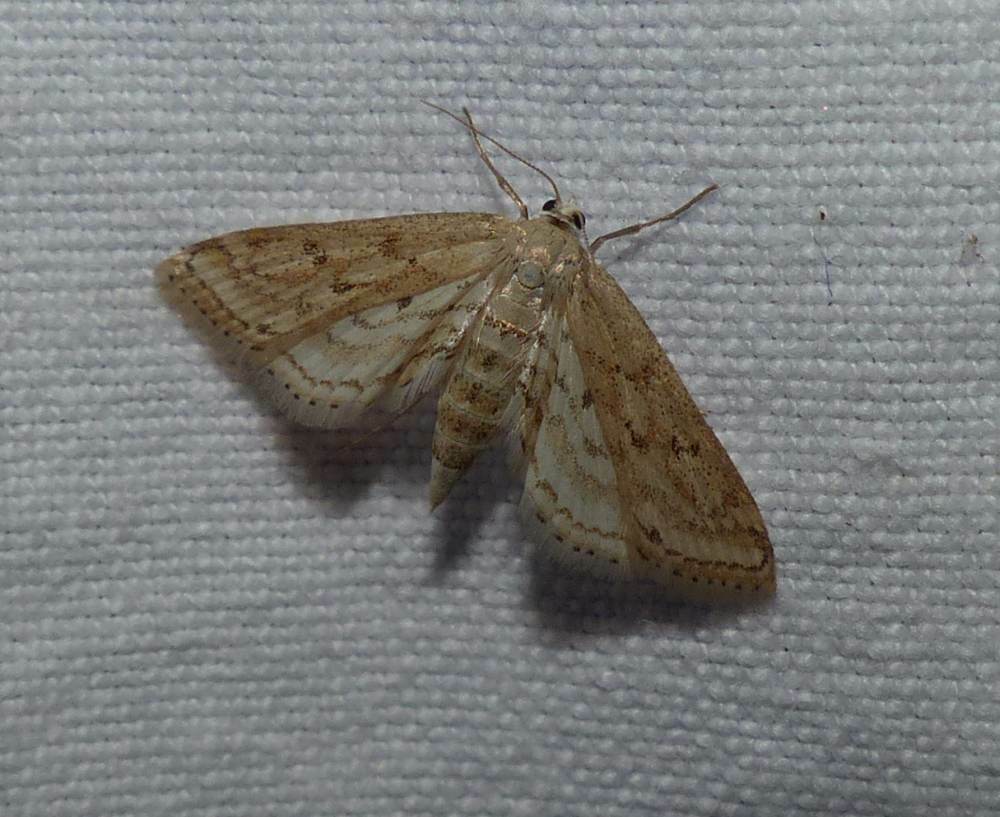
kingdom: Animalia
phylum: Arthropoda
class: Insecta
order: Lepidoptera
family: Crambidae
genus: Parapoynx
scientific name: Parapoynx allionealis
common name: Bladderwort casemaker
